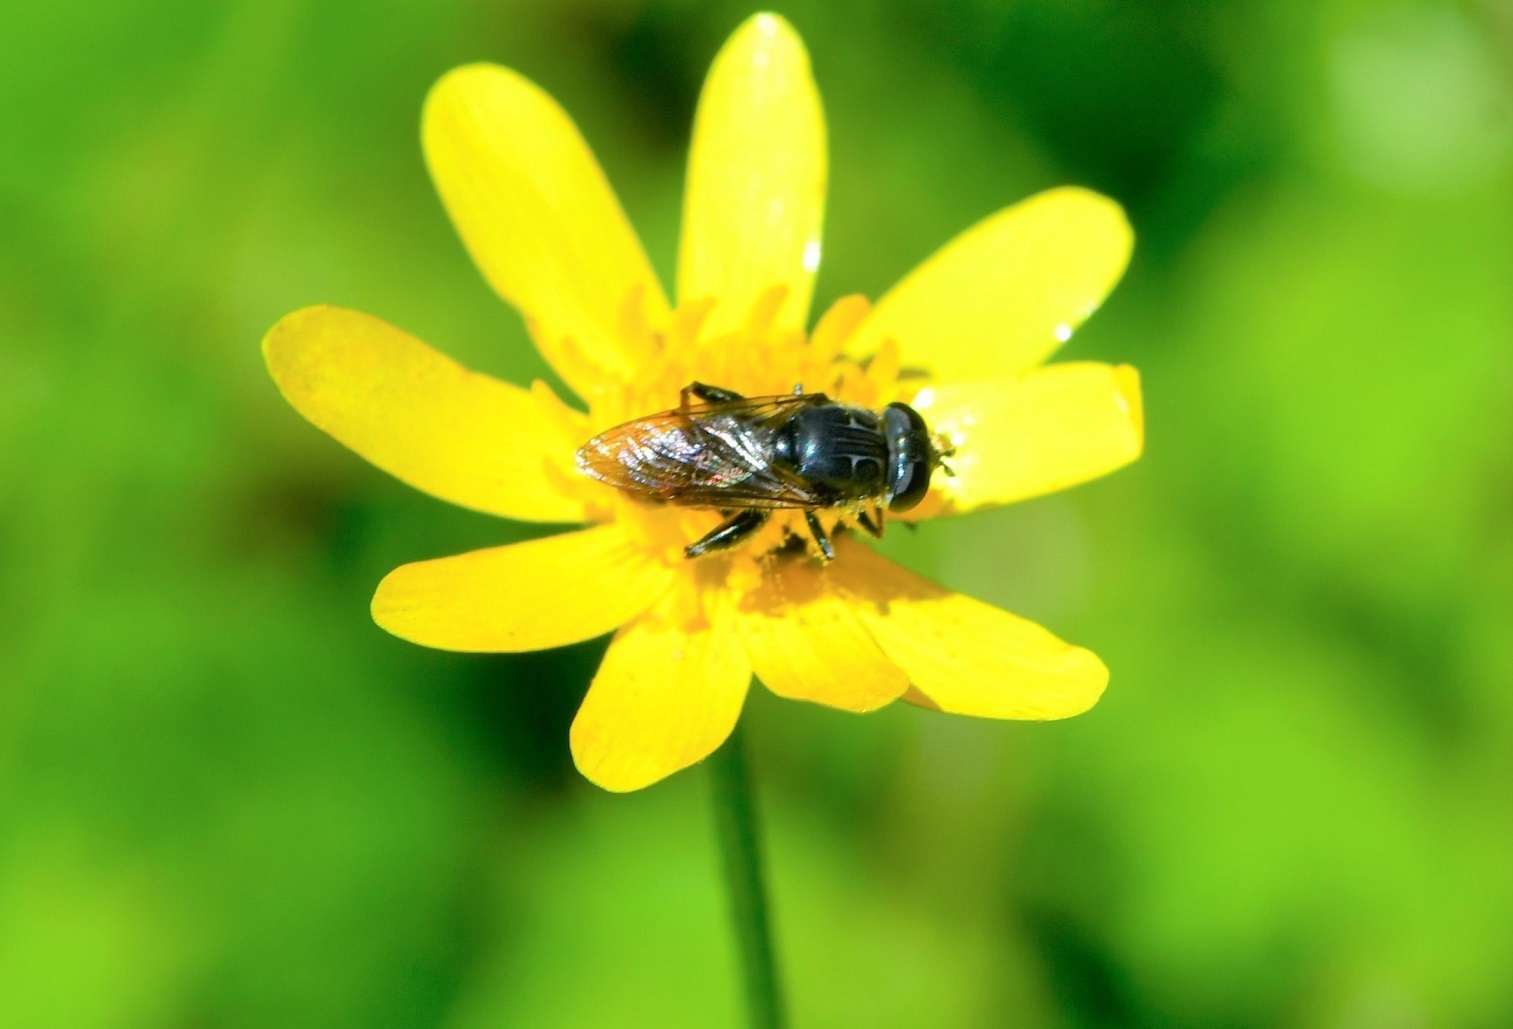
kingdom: Animalia
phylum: Arthropoda
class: Insecta
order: Diptera
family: Syrphidae
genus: Asemosyrphus
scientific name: Asemosyrphus
